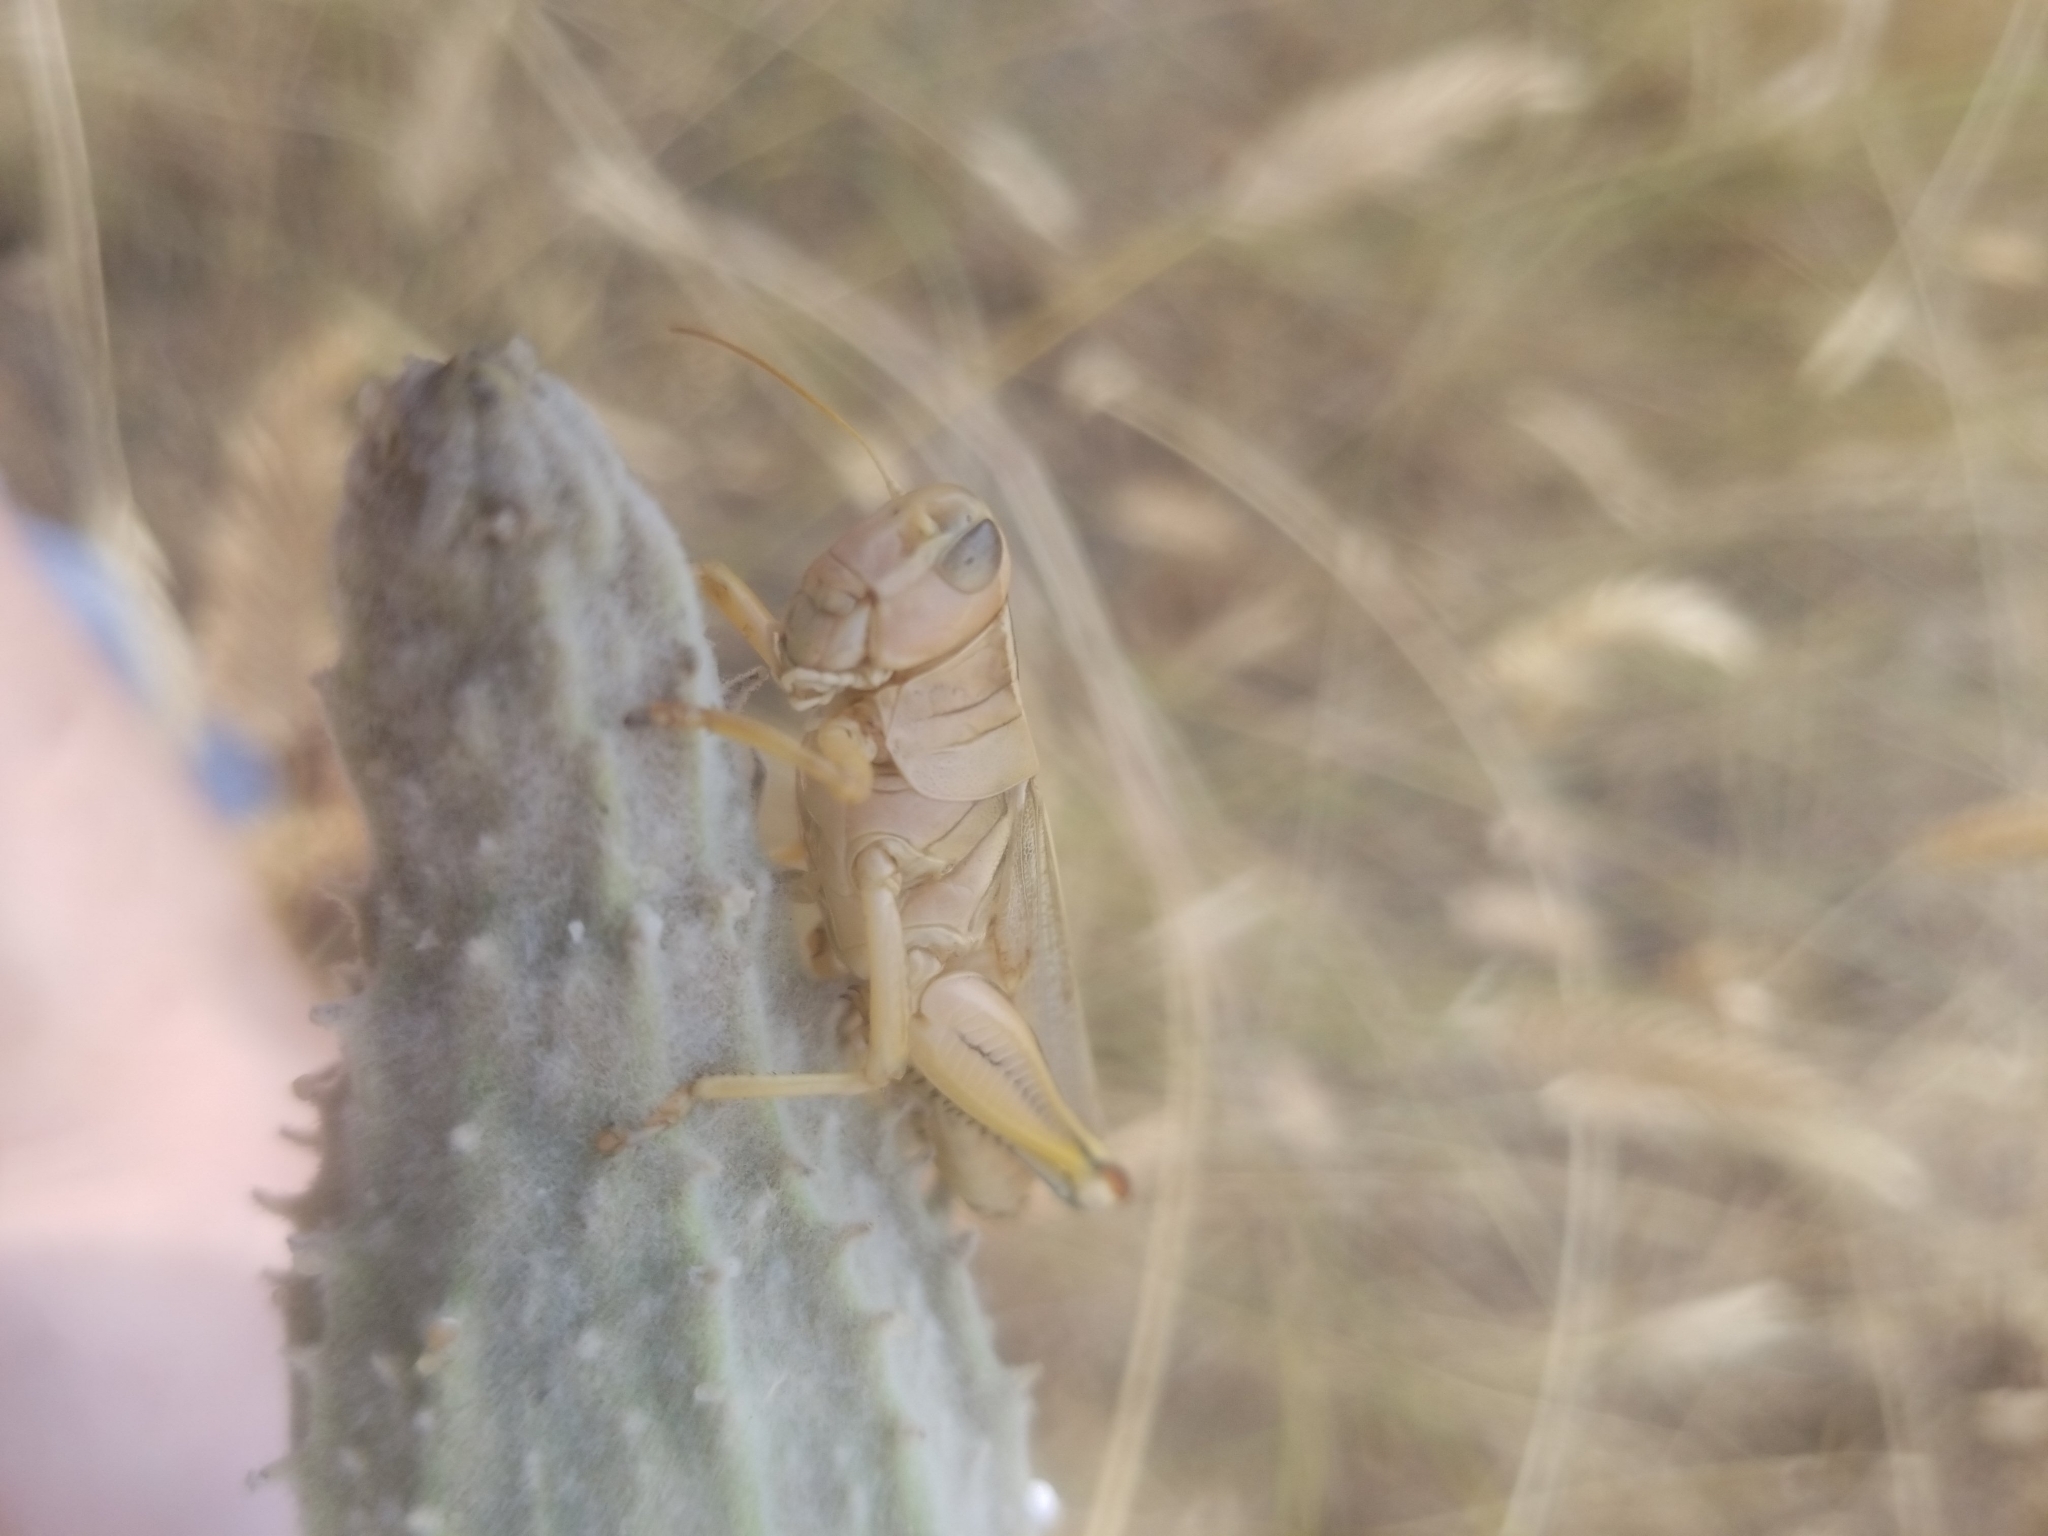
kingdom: Animalia
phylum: Arthropoda
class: Insecta
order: Orthoptera
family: Acrididae
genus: Melanoplus
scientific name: Melanoplus bivittatus
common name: Two-striped grasshopper
